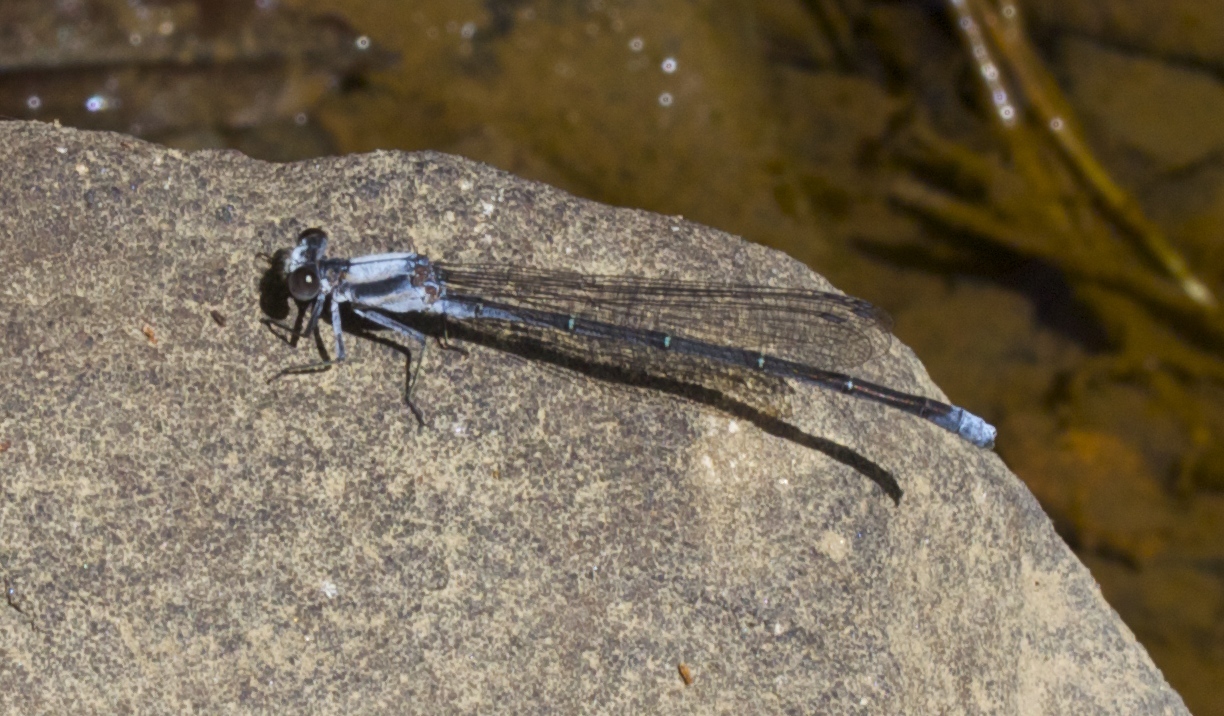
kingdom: Animalia
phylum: Arthropoda
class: Insecta
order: Odonata
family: Coenagrionidae
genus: Argia
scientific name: Argia moesta
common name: Powdered dancer
